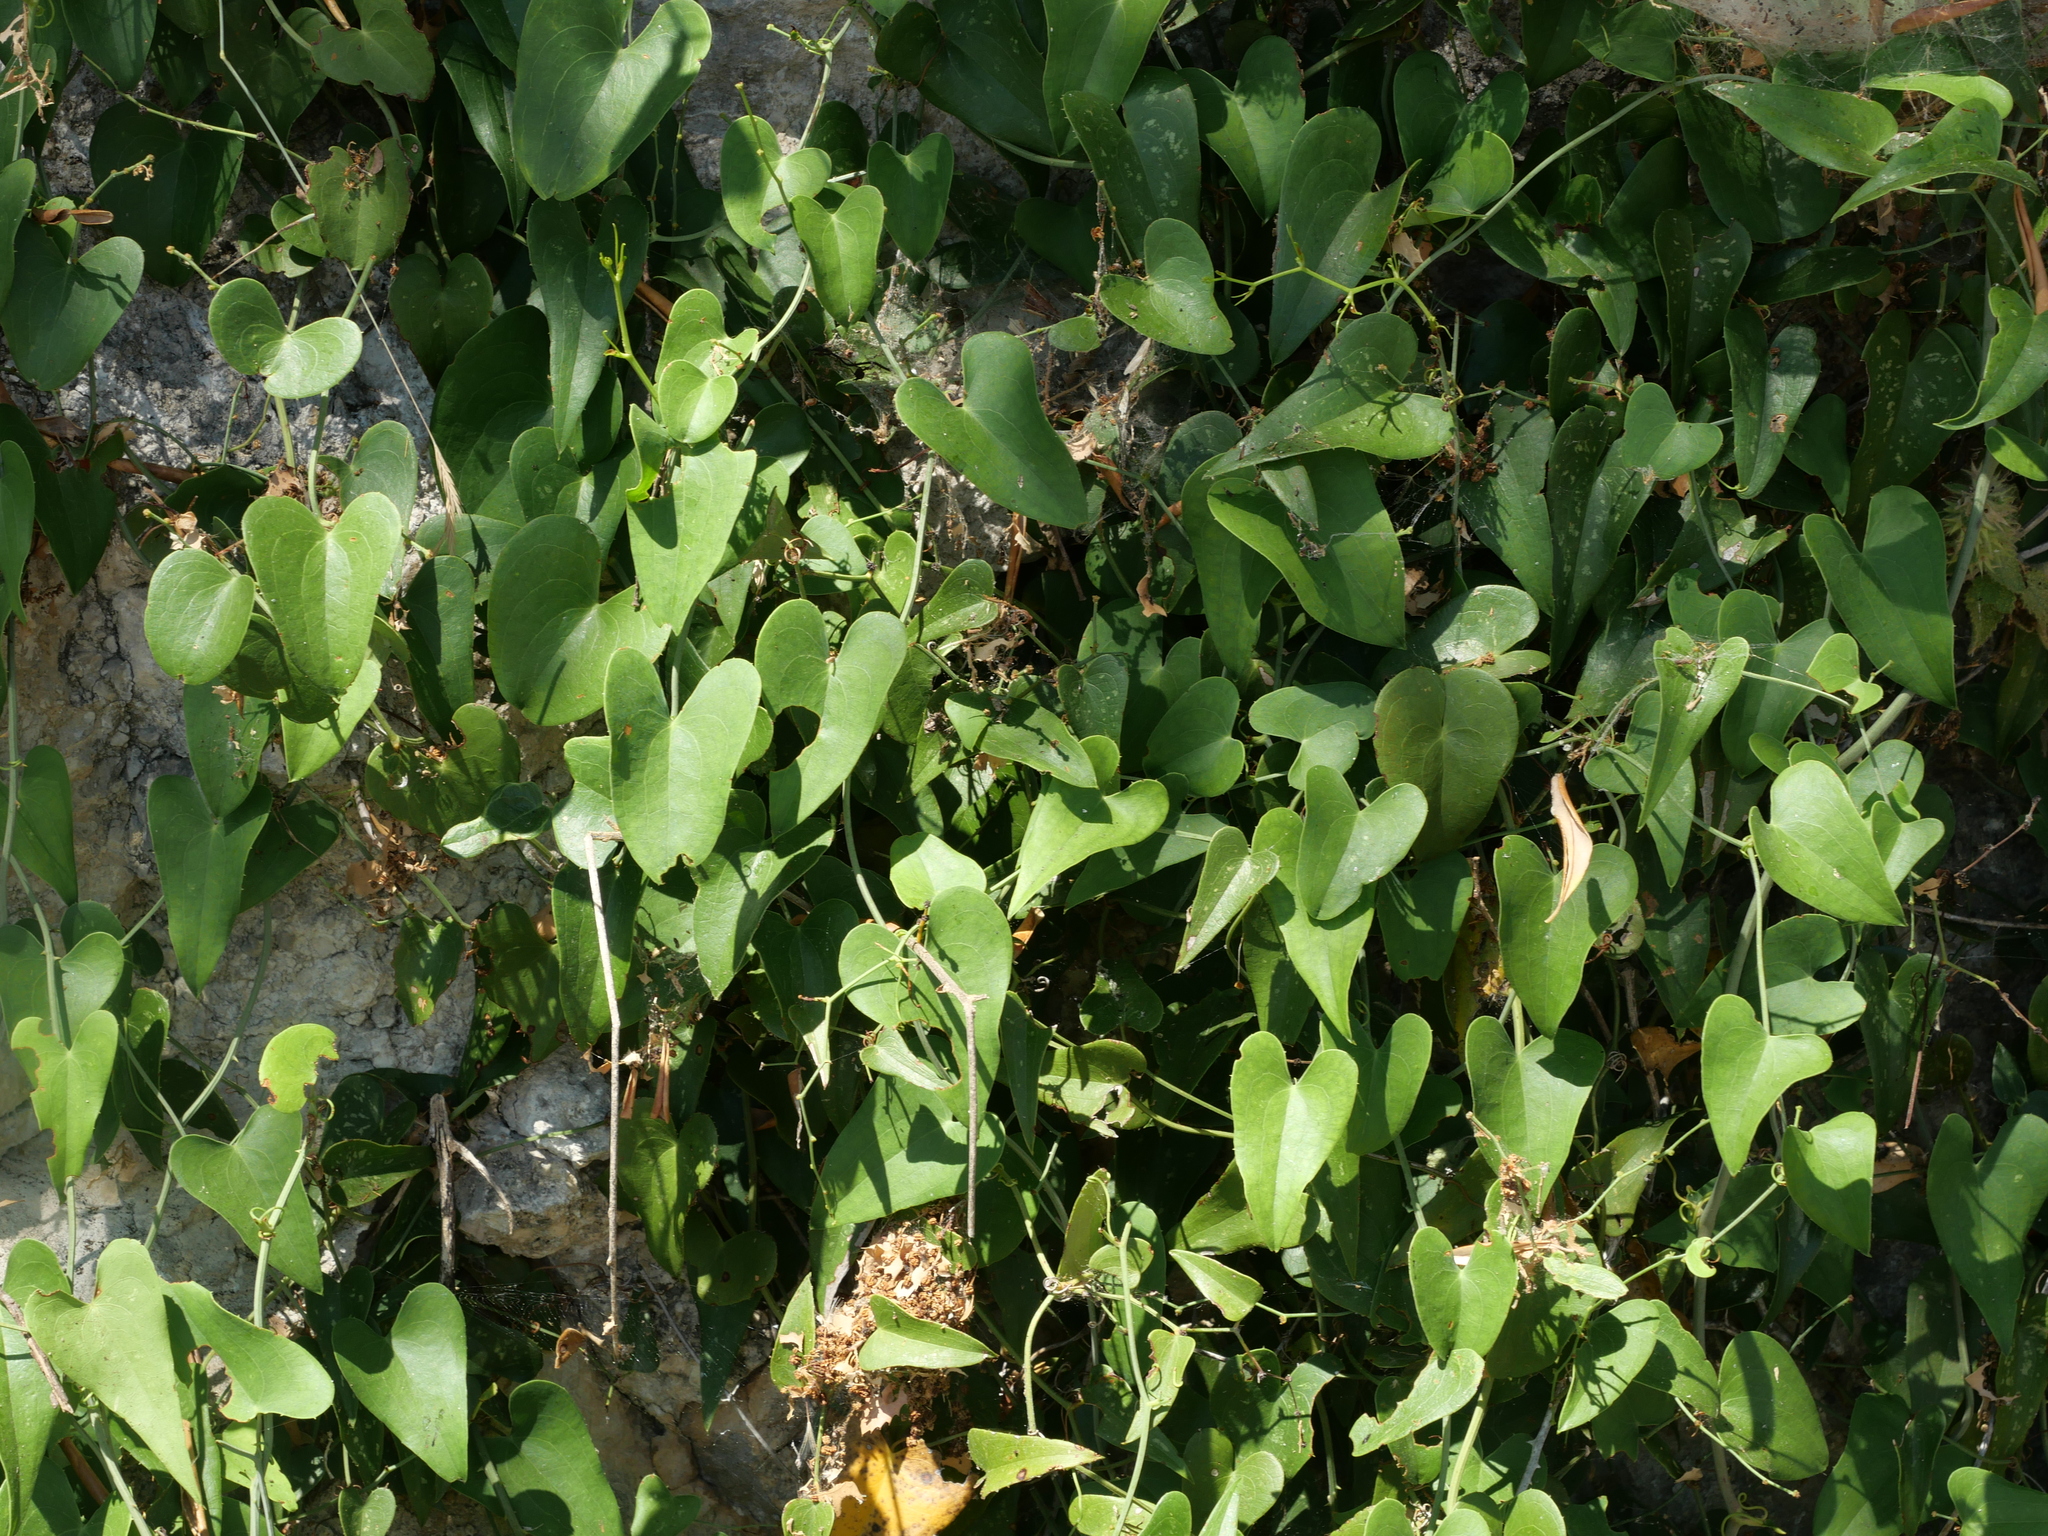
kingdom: Plantae
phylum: Tracheophyta
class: Liliopsida
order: Liliales
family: Smilacaceae
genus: Smilax
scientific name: Smilax aspera
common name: Common smilax
